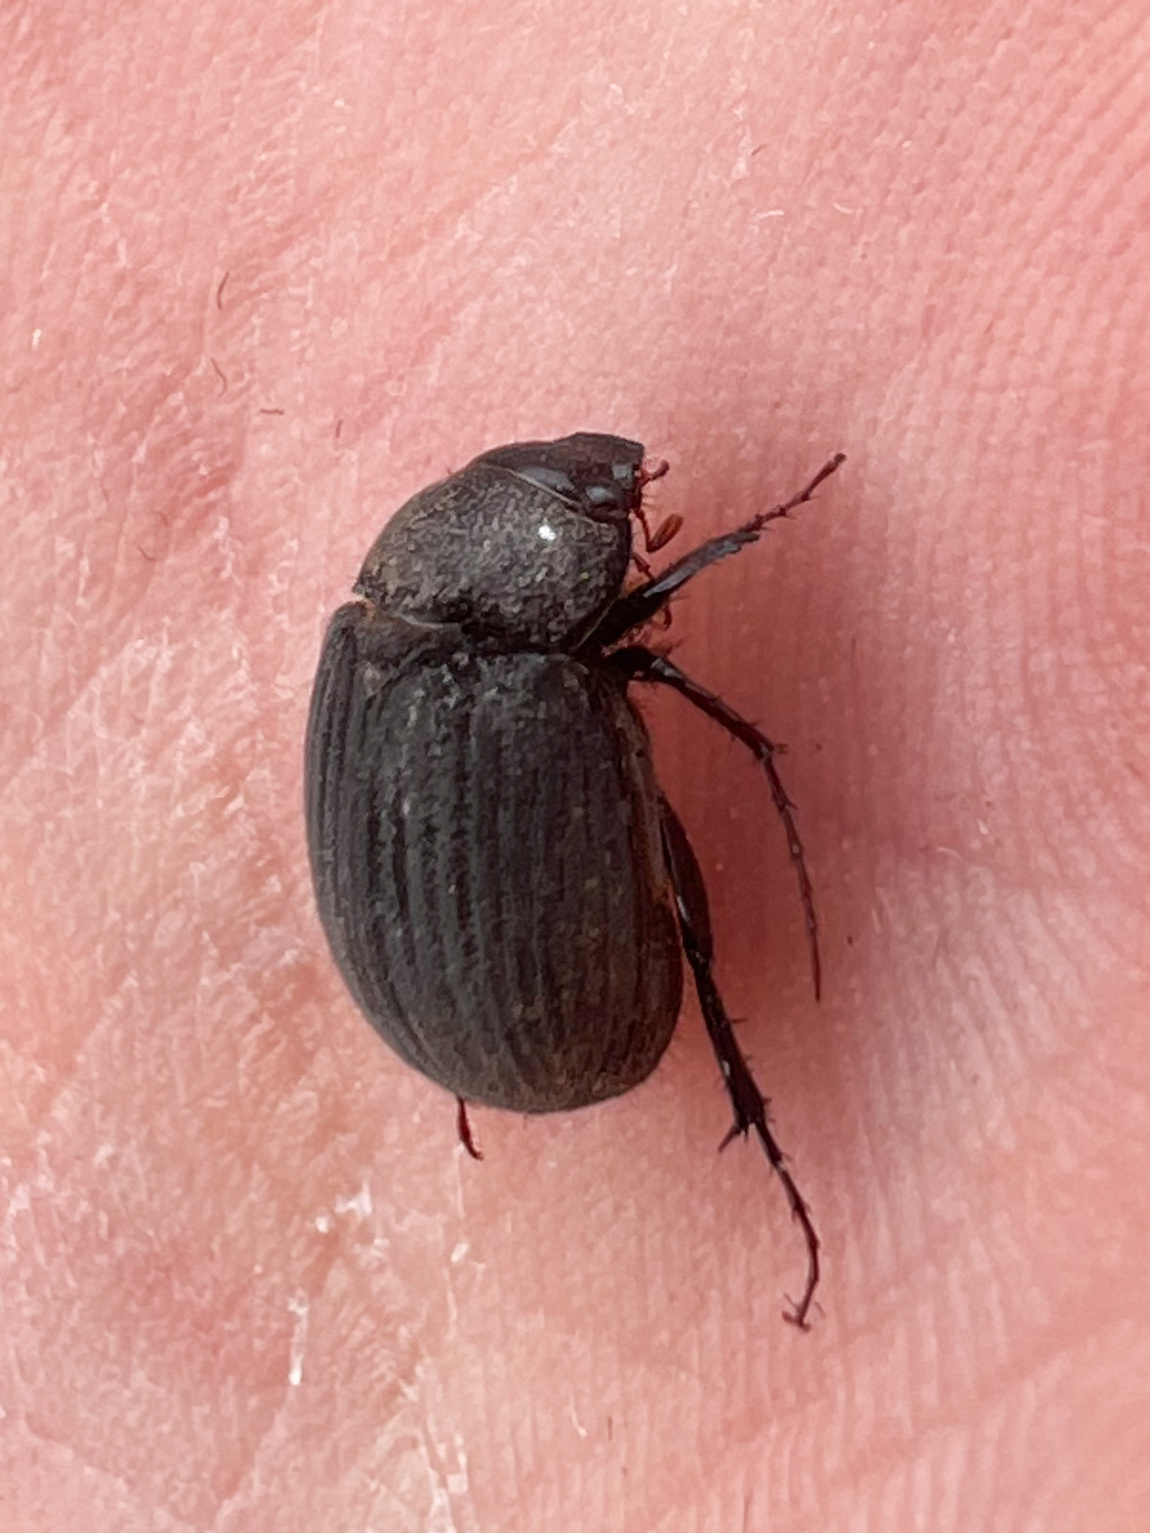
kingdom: Animalia
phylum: Arthropoda
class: Insecta
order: Coleoptera
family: Scarabaeidae
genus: Maladera
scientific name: Maladera holosericea
